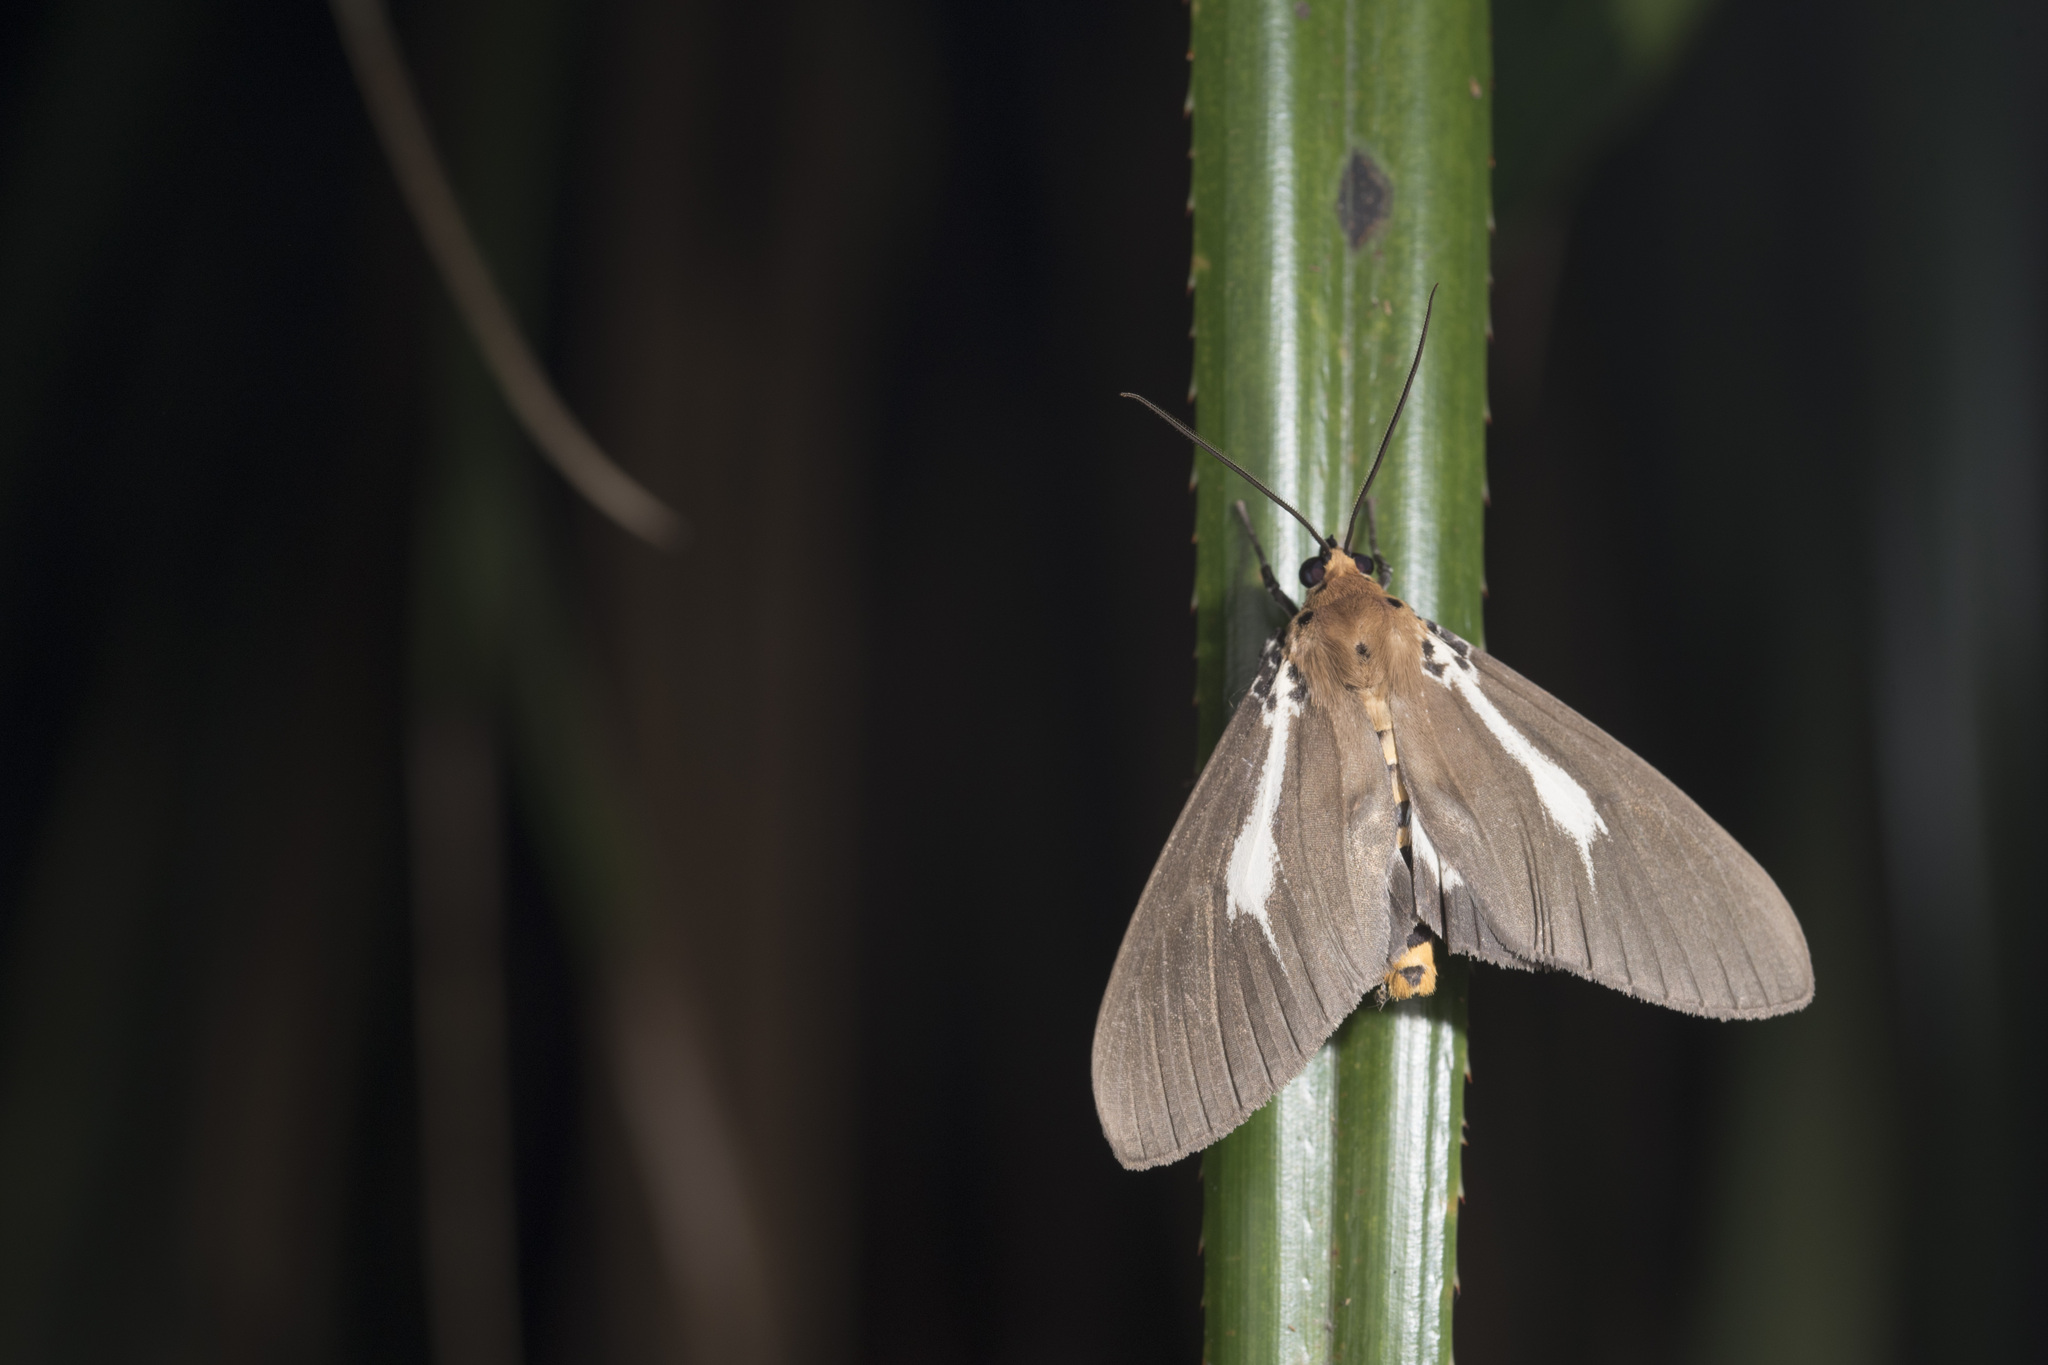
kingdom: Animalia
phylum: Arthropoda
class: Insecta
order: Lepidoptera
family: Erebidae
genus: Asota
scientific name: Asota heliconia
